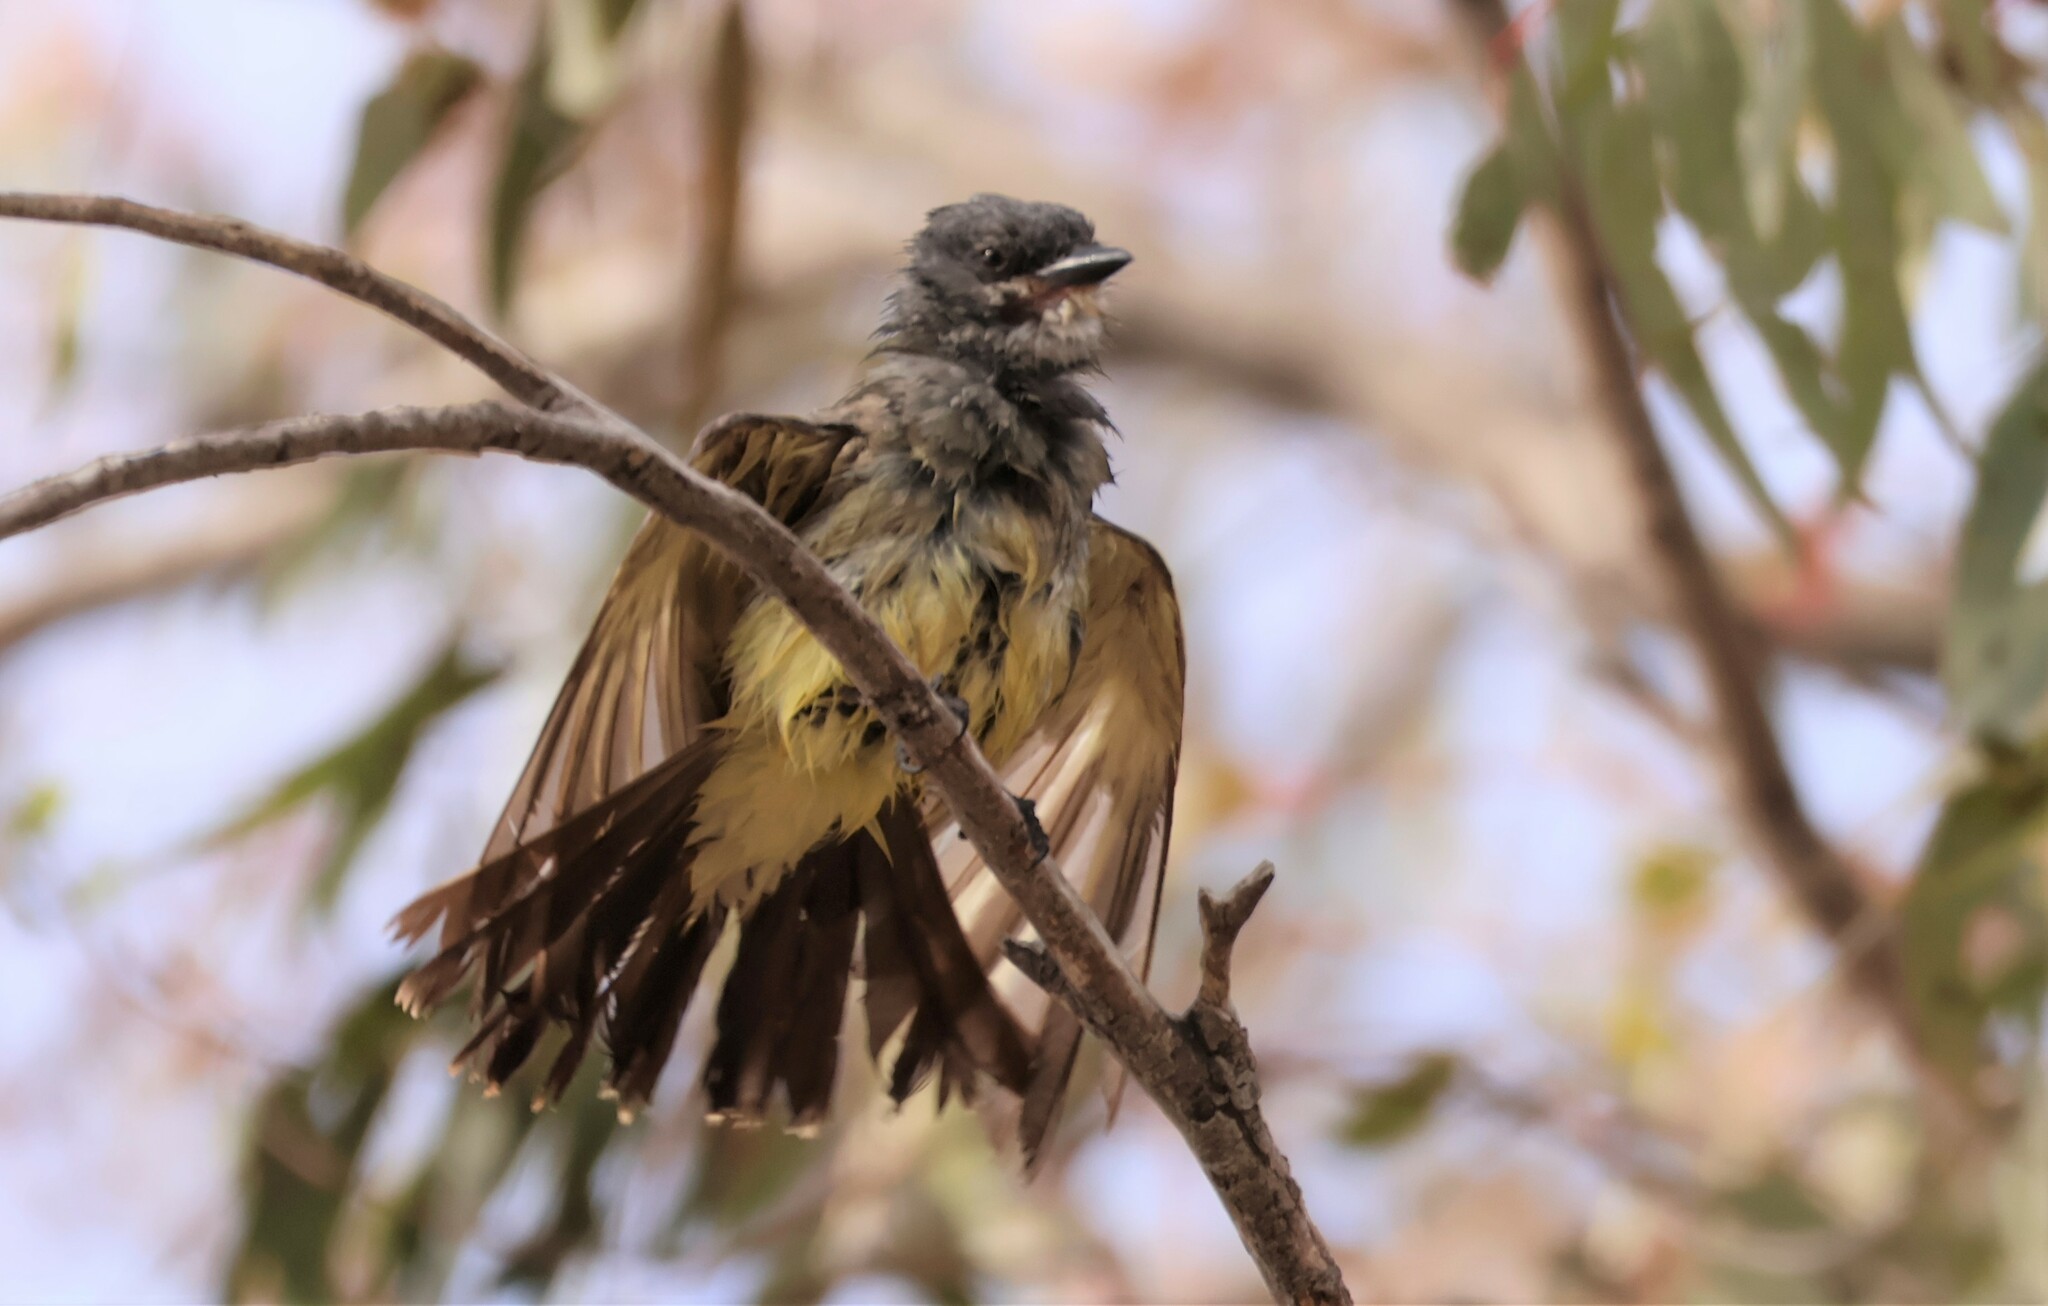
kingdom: Animalia
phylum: Chordata
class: Aves
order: Passeriformes
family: Tyrannidae
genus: Tyrannus
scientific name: Tyrannus vociferans
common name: Cassin's kingbird
